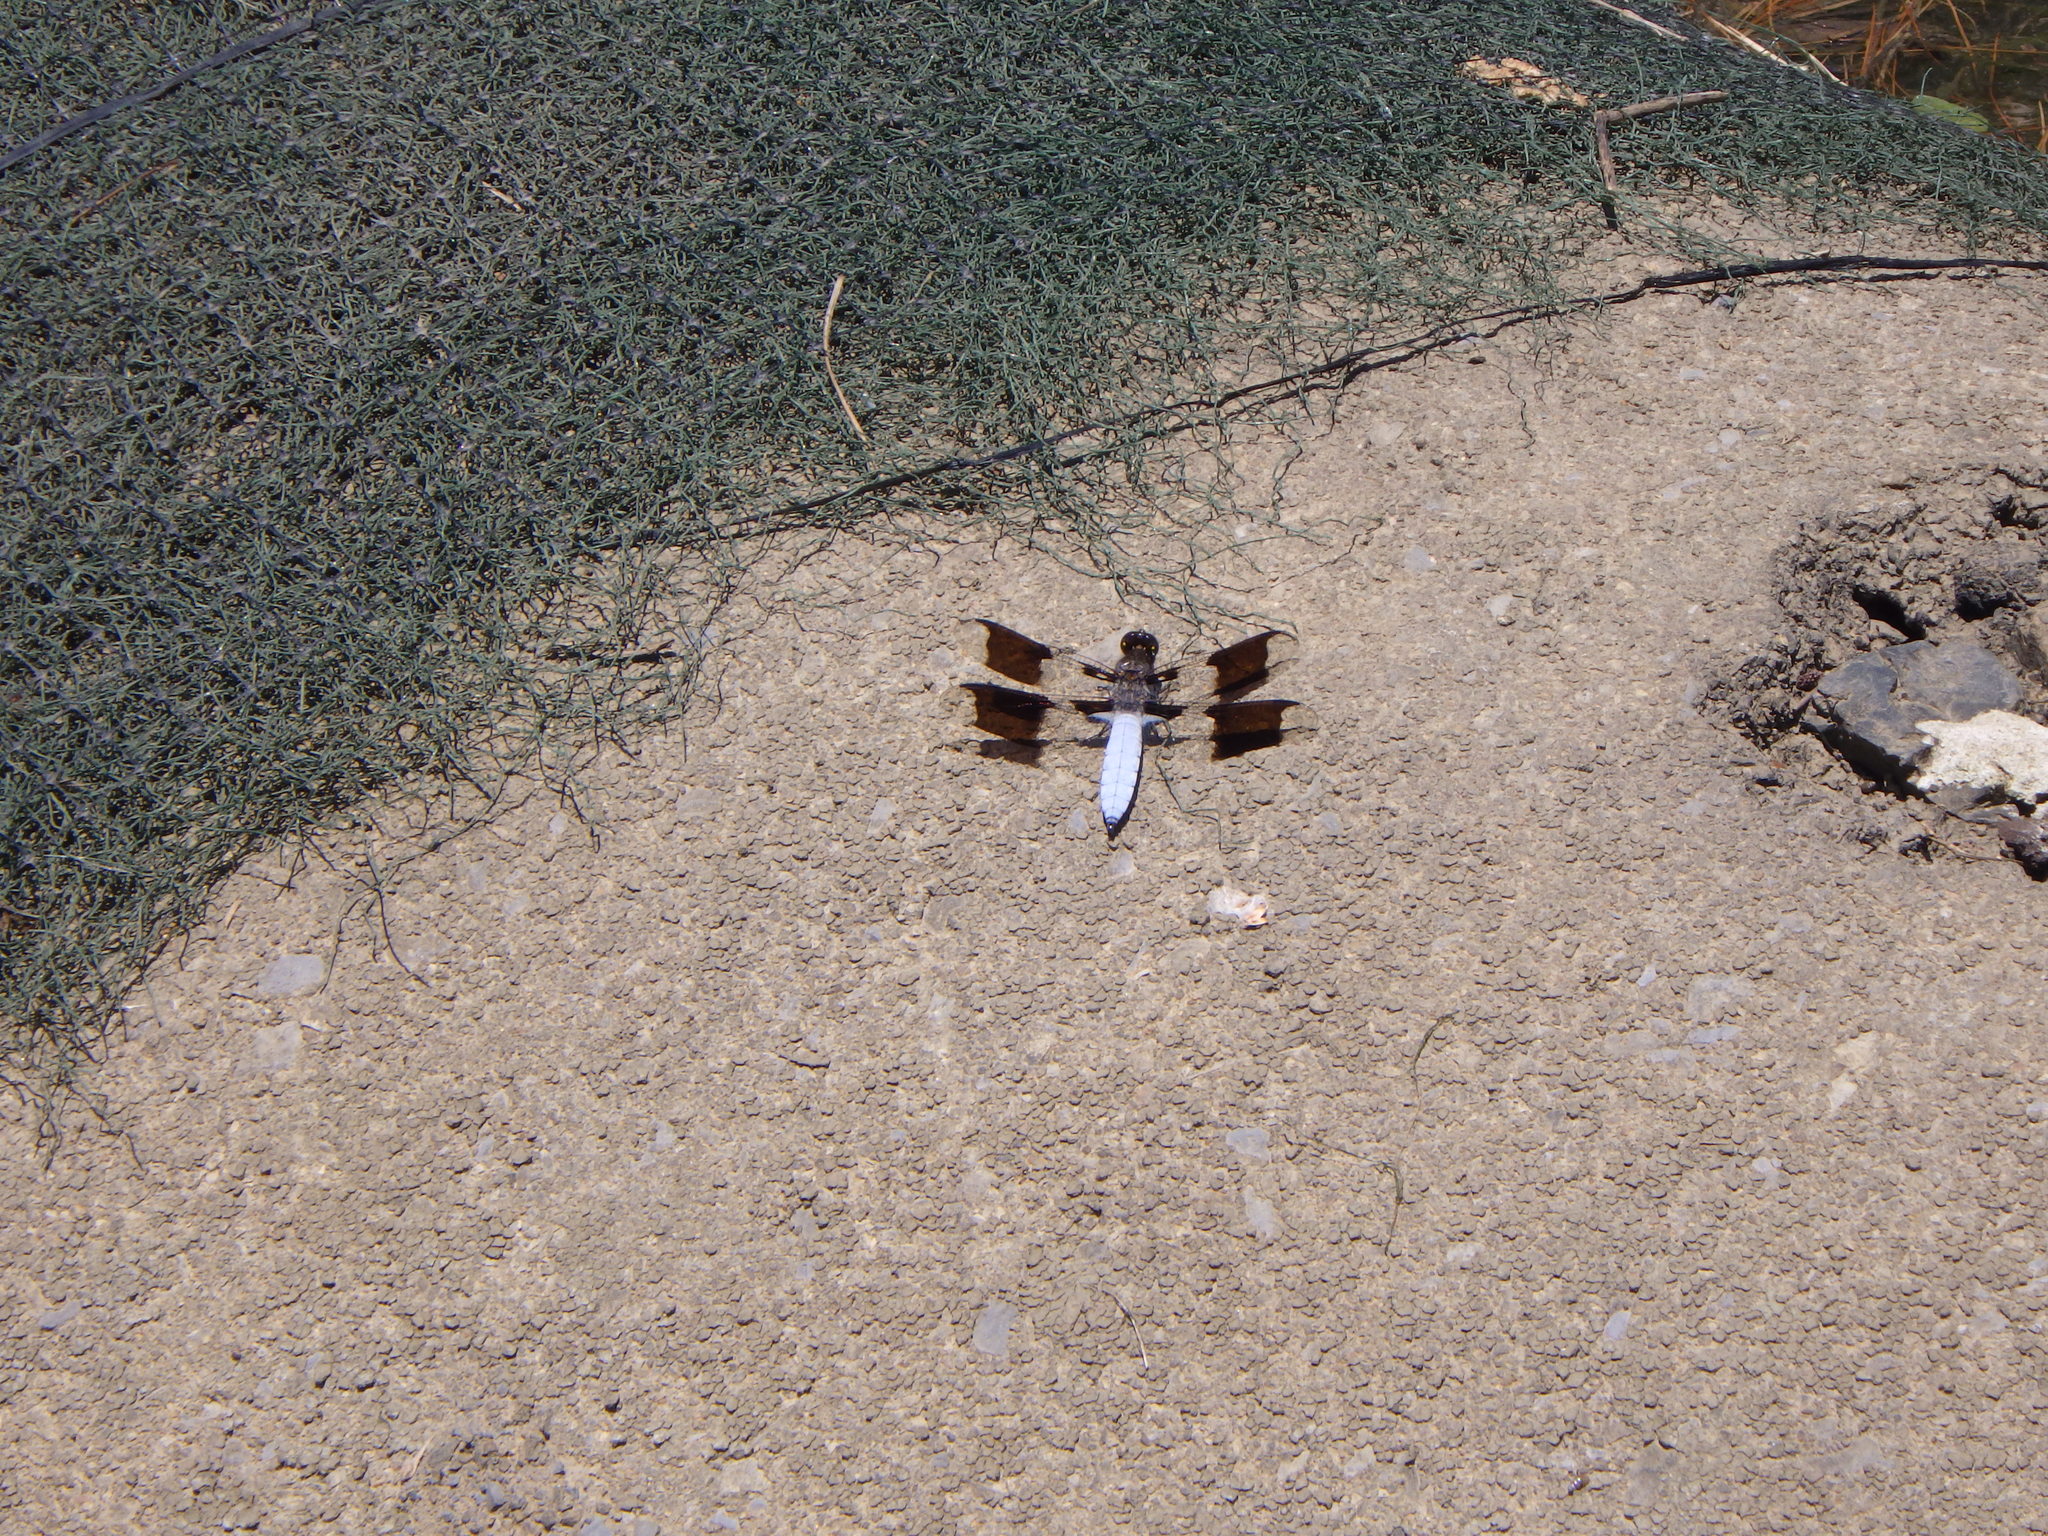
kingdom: Animalia
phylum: Arthropoda
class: Insecta
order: Odonata
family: Libellulidae
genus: Plathemis
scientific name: Plathemis lydia
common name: Common whitetail
